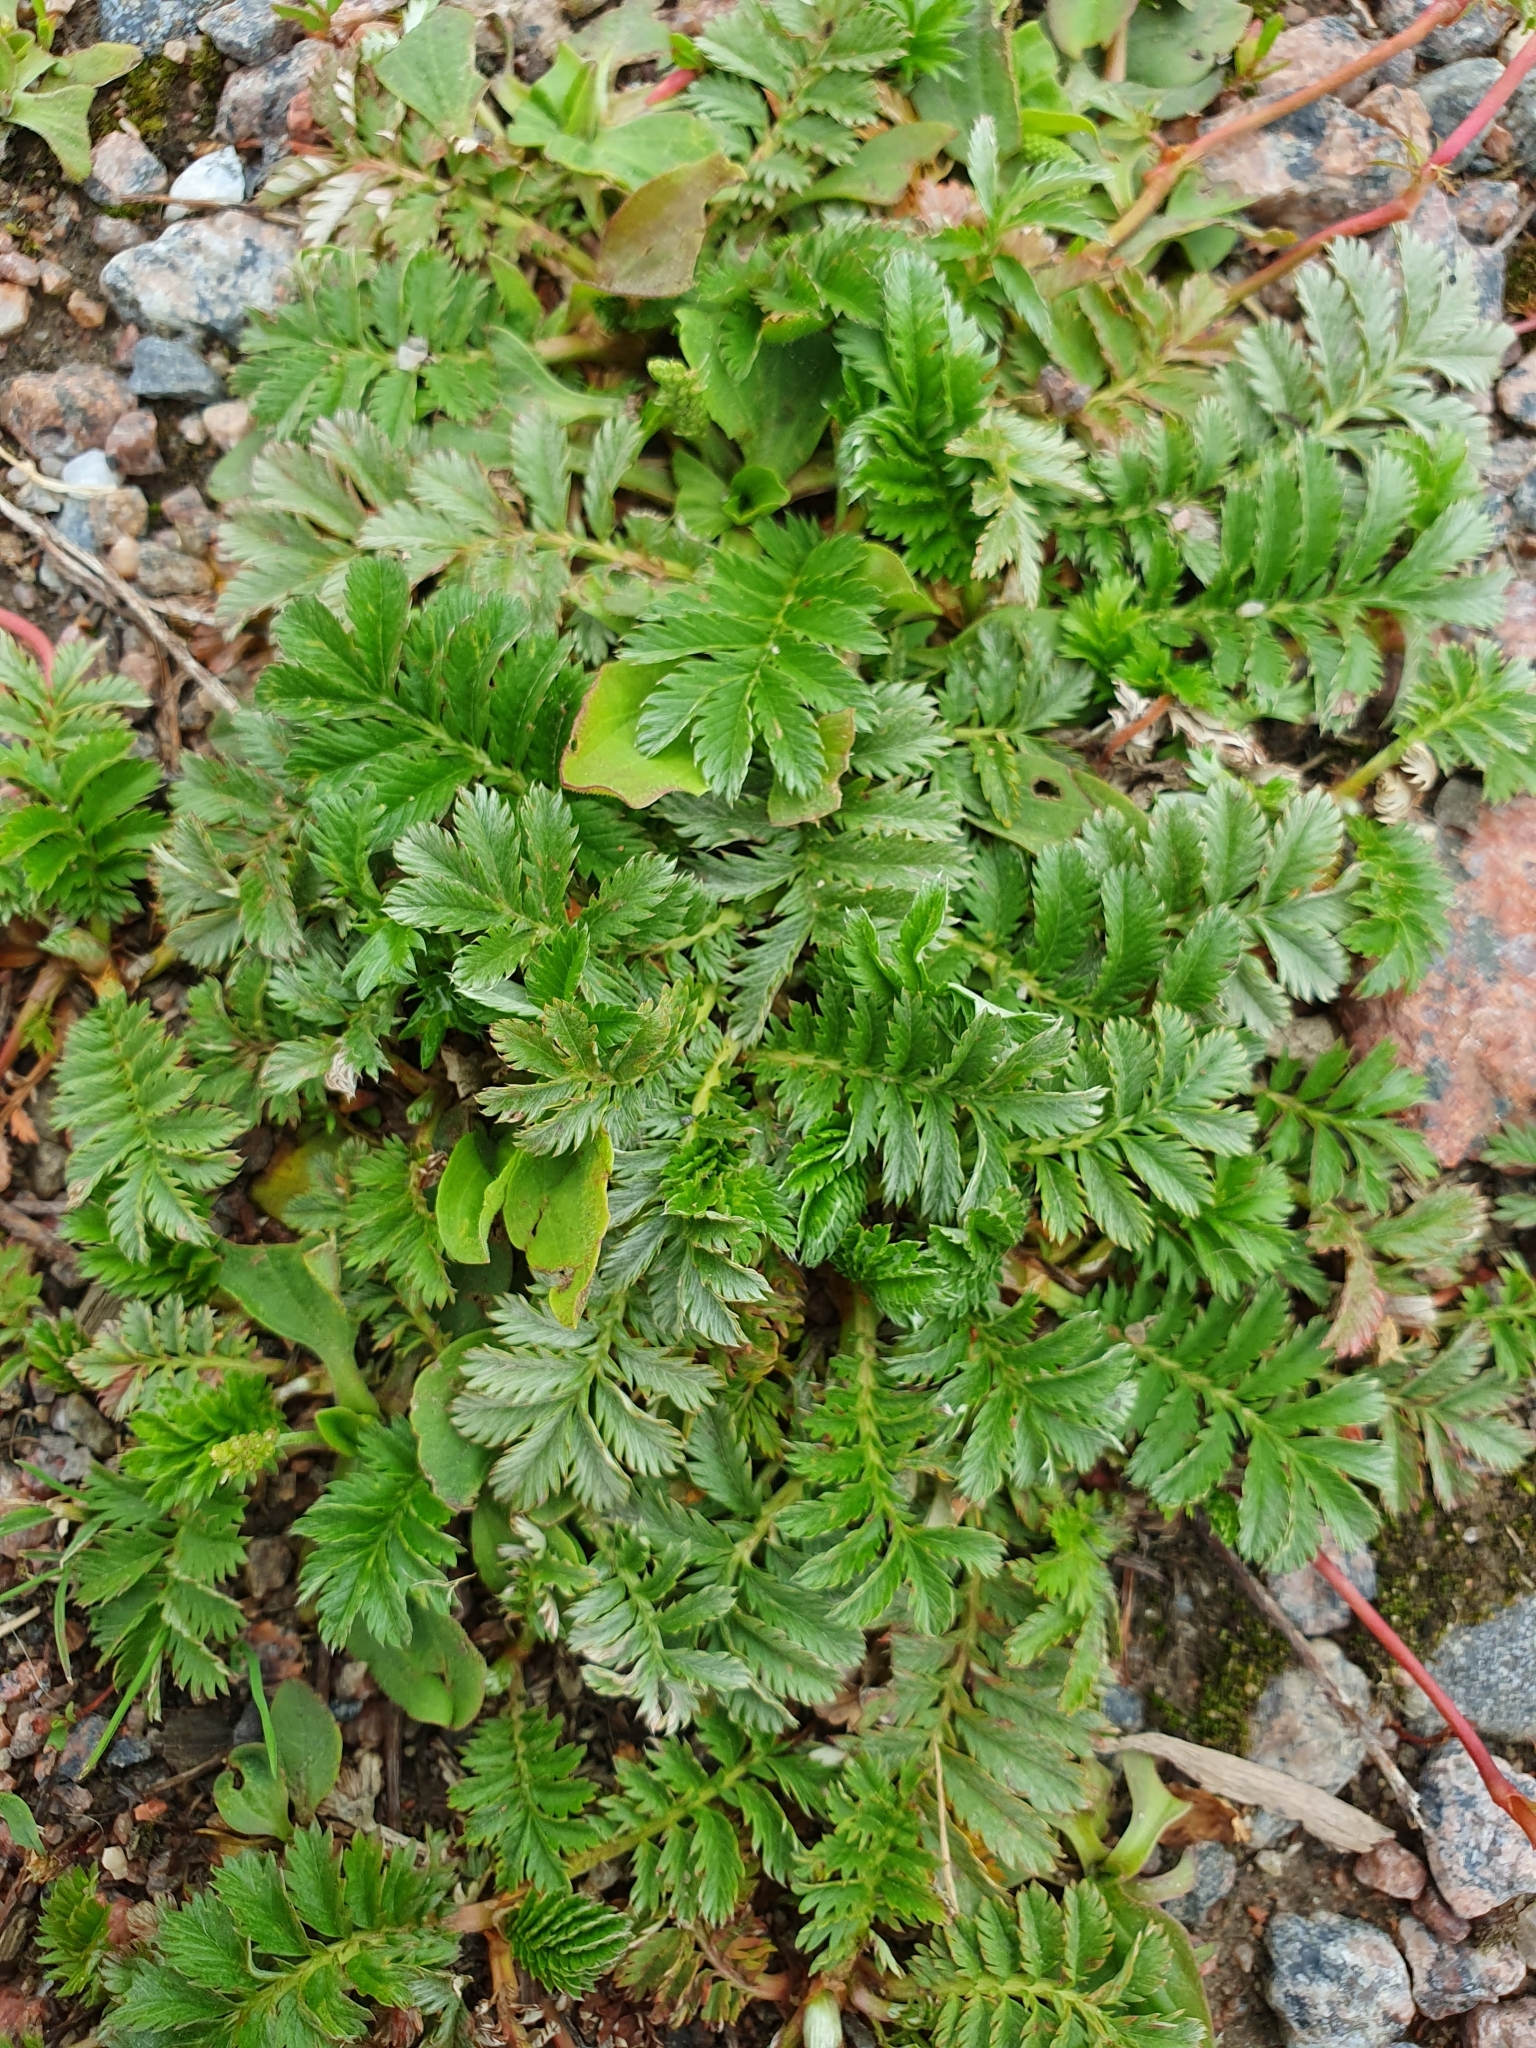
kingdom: Plantae
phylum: Tracheophyta
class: Magnoliopsida
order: Rosales
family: Rosaceae
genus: Argentina
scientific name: Argentina anserina
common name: Common silverweed
